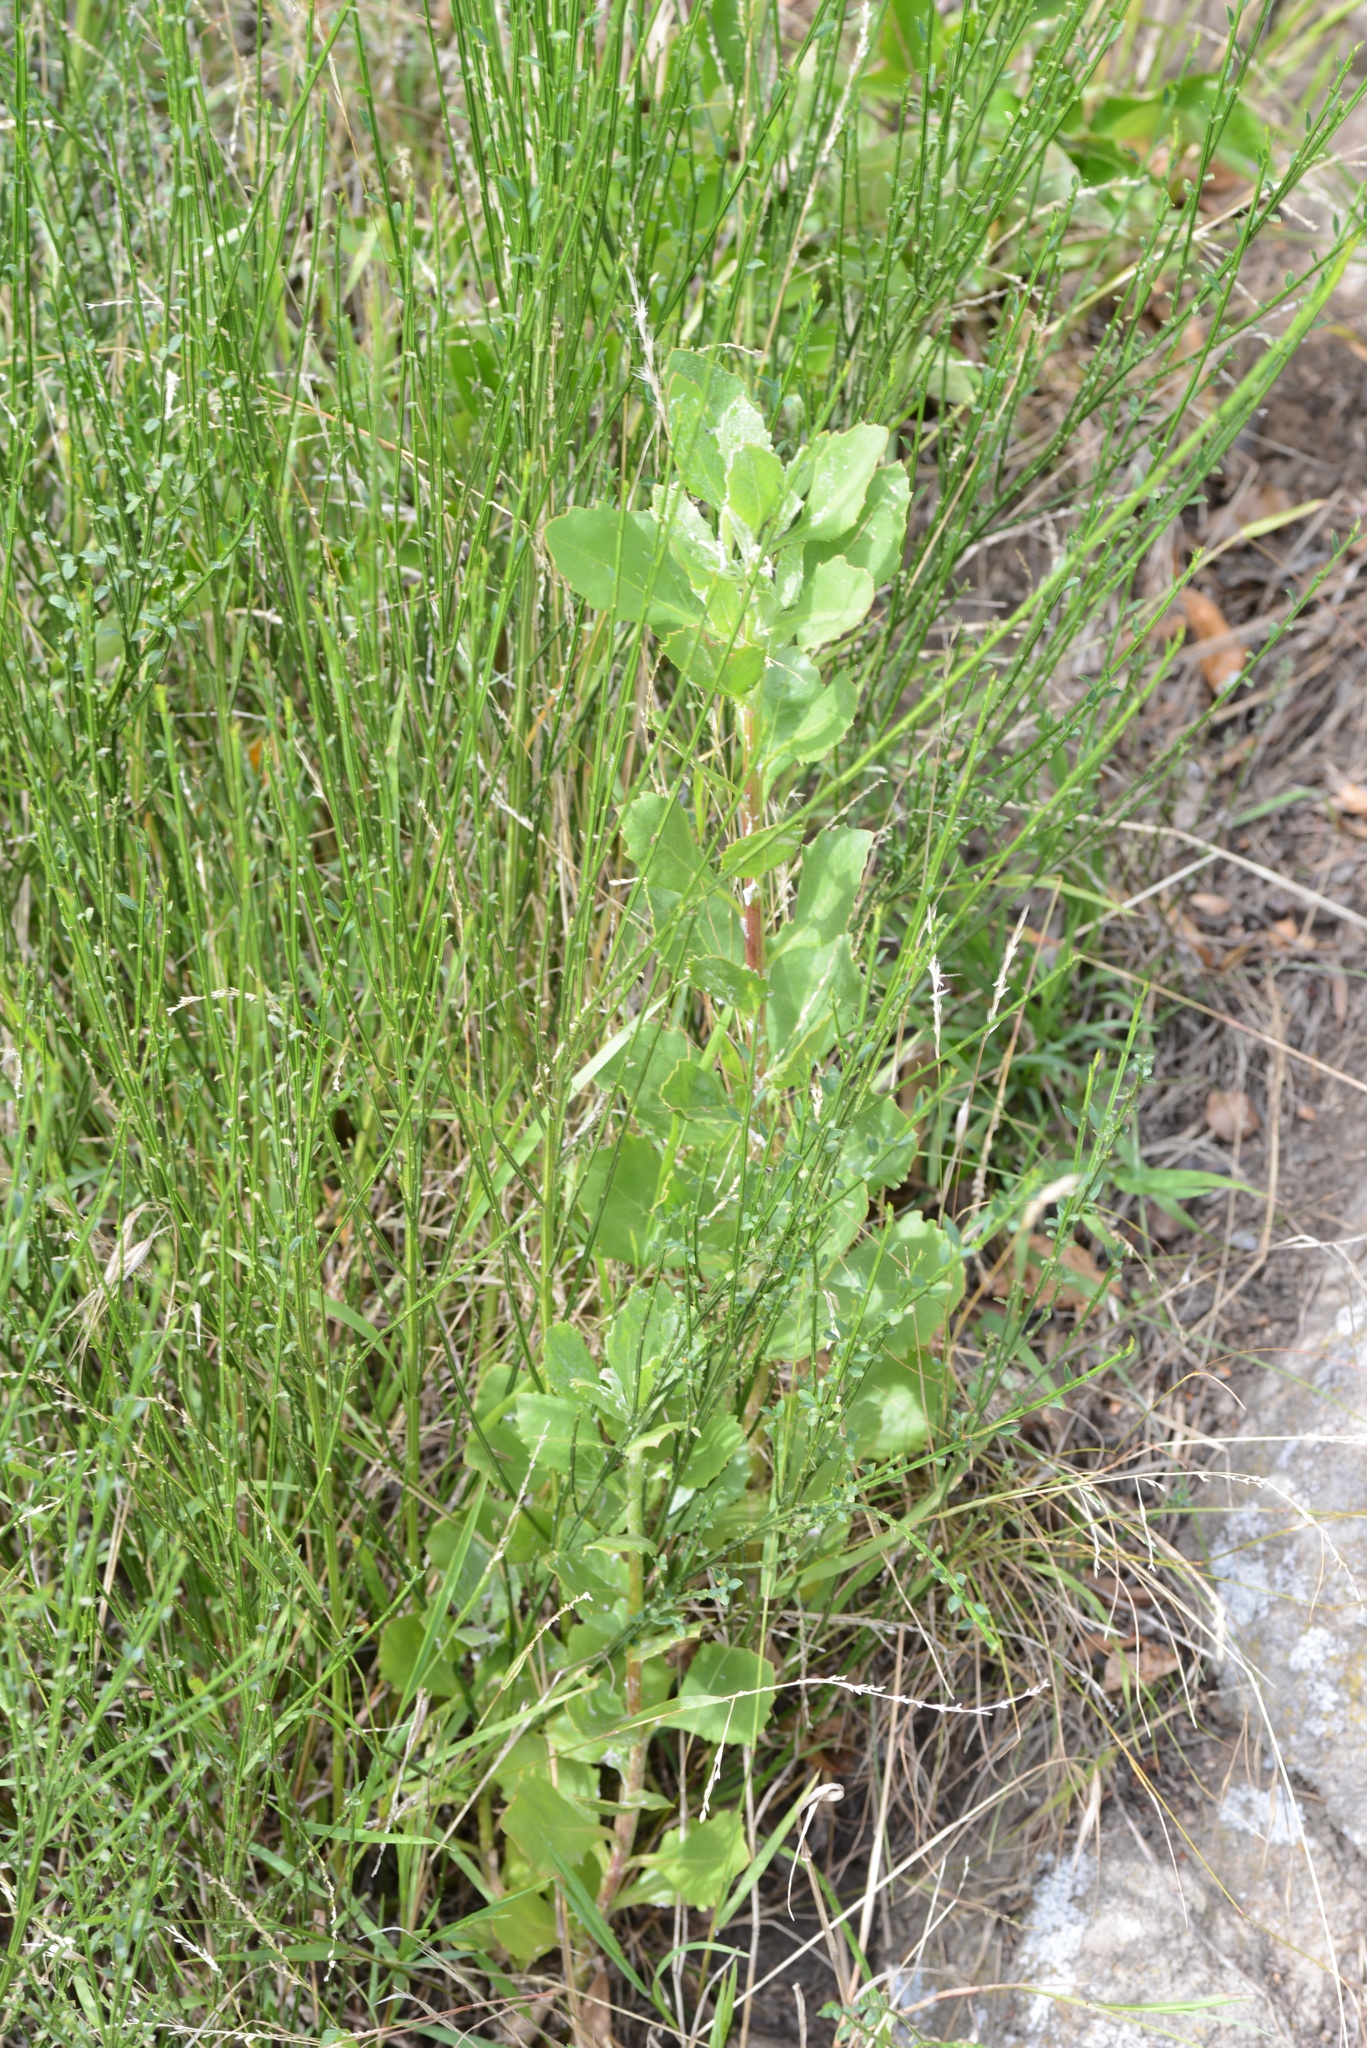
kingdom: Plantae
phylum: Tracheophyta
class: Magnoliopsida
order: Asterales
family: Asteraceae
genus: Osteospermum
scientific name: Osteospermum moniliferum
